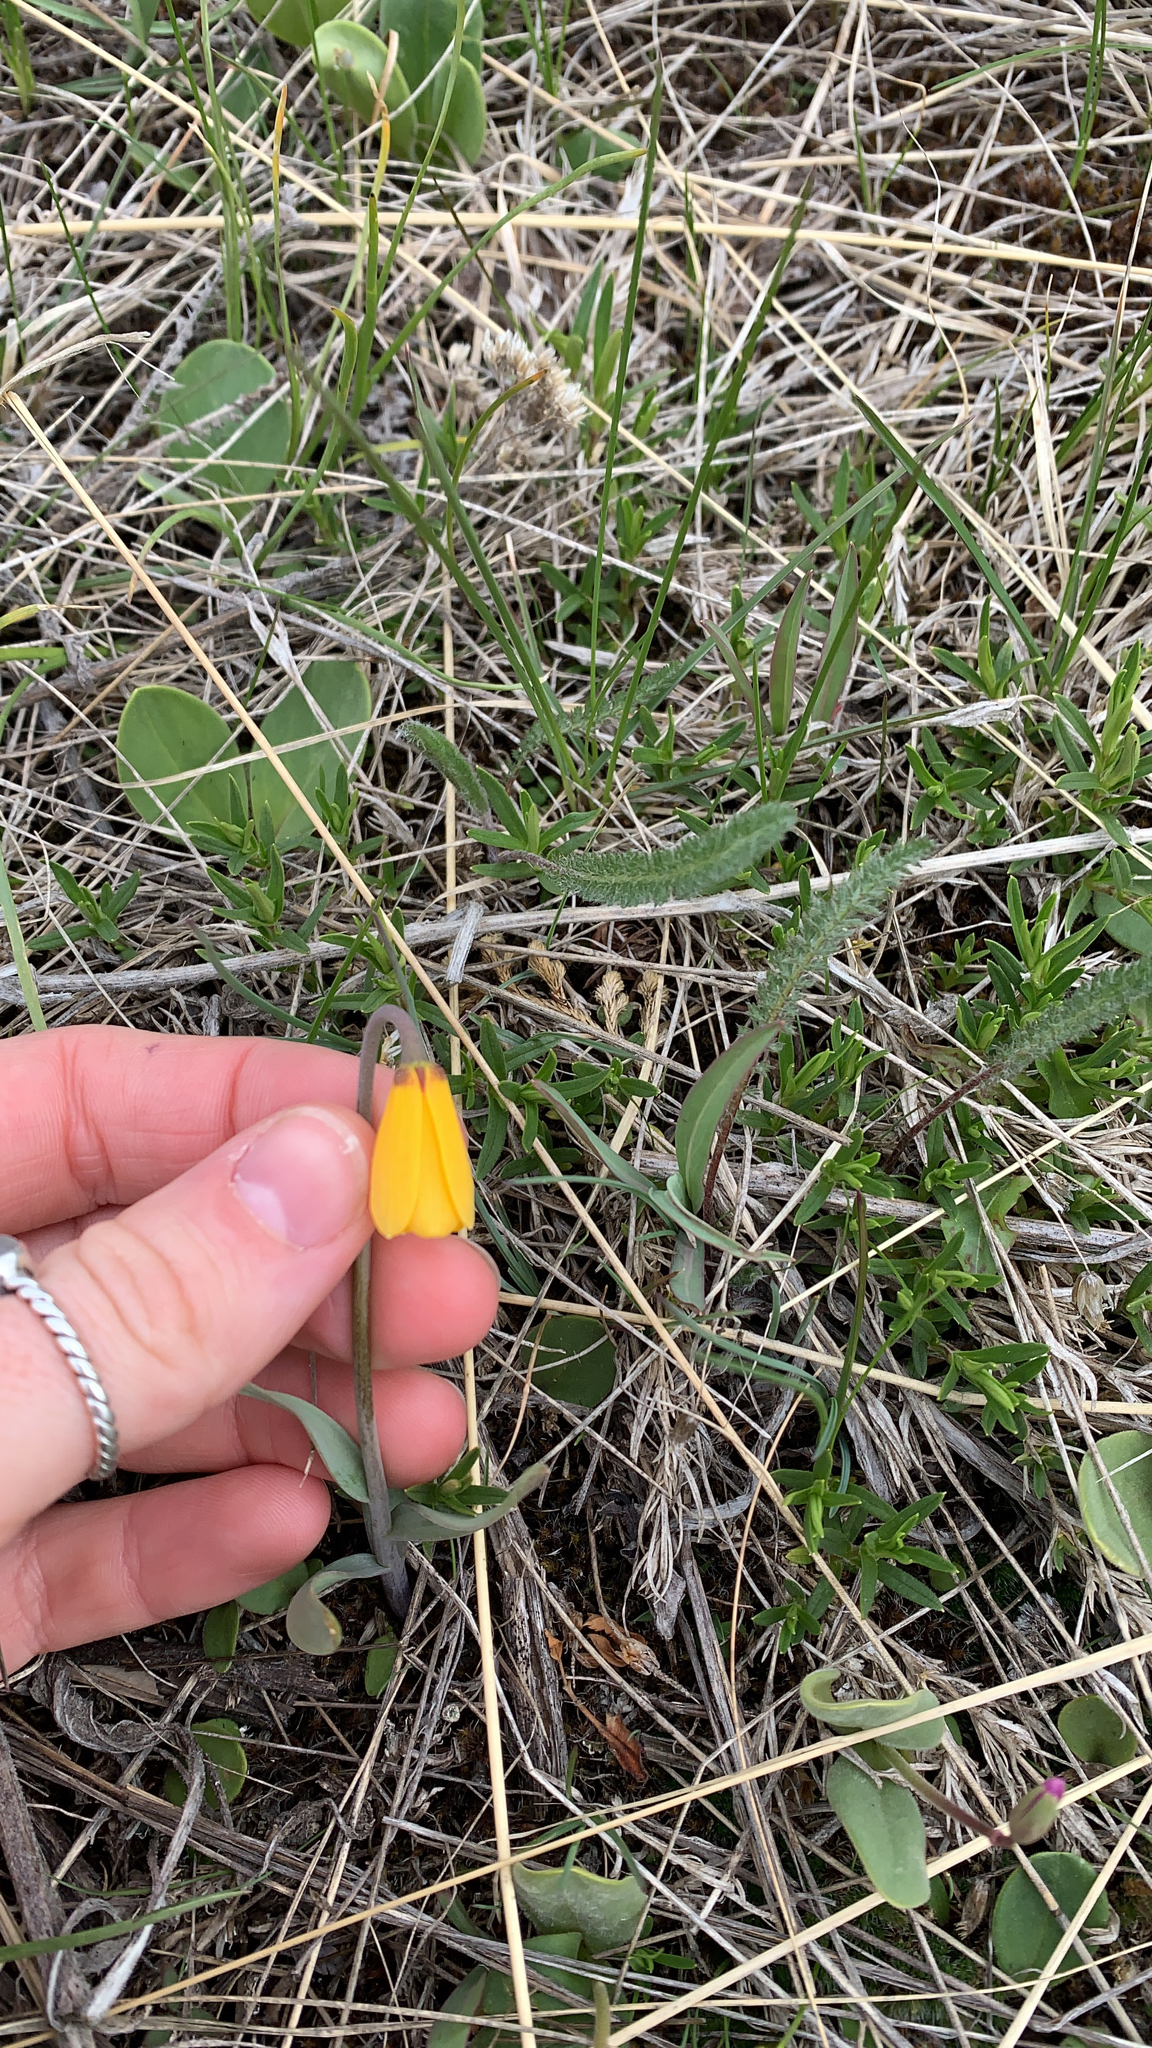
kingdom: Plantae
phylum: Tracheophyta
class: Liliopsida
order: Liliales
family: Liliaceae
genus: Fritillaria
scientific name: Fritillaria pudica
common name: Yellow fritillary
